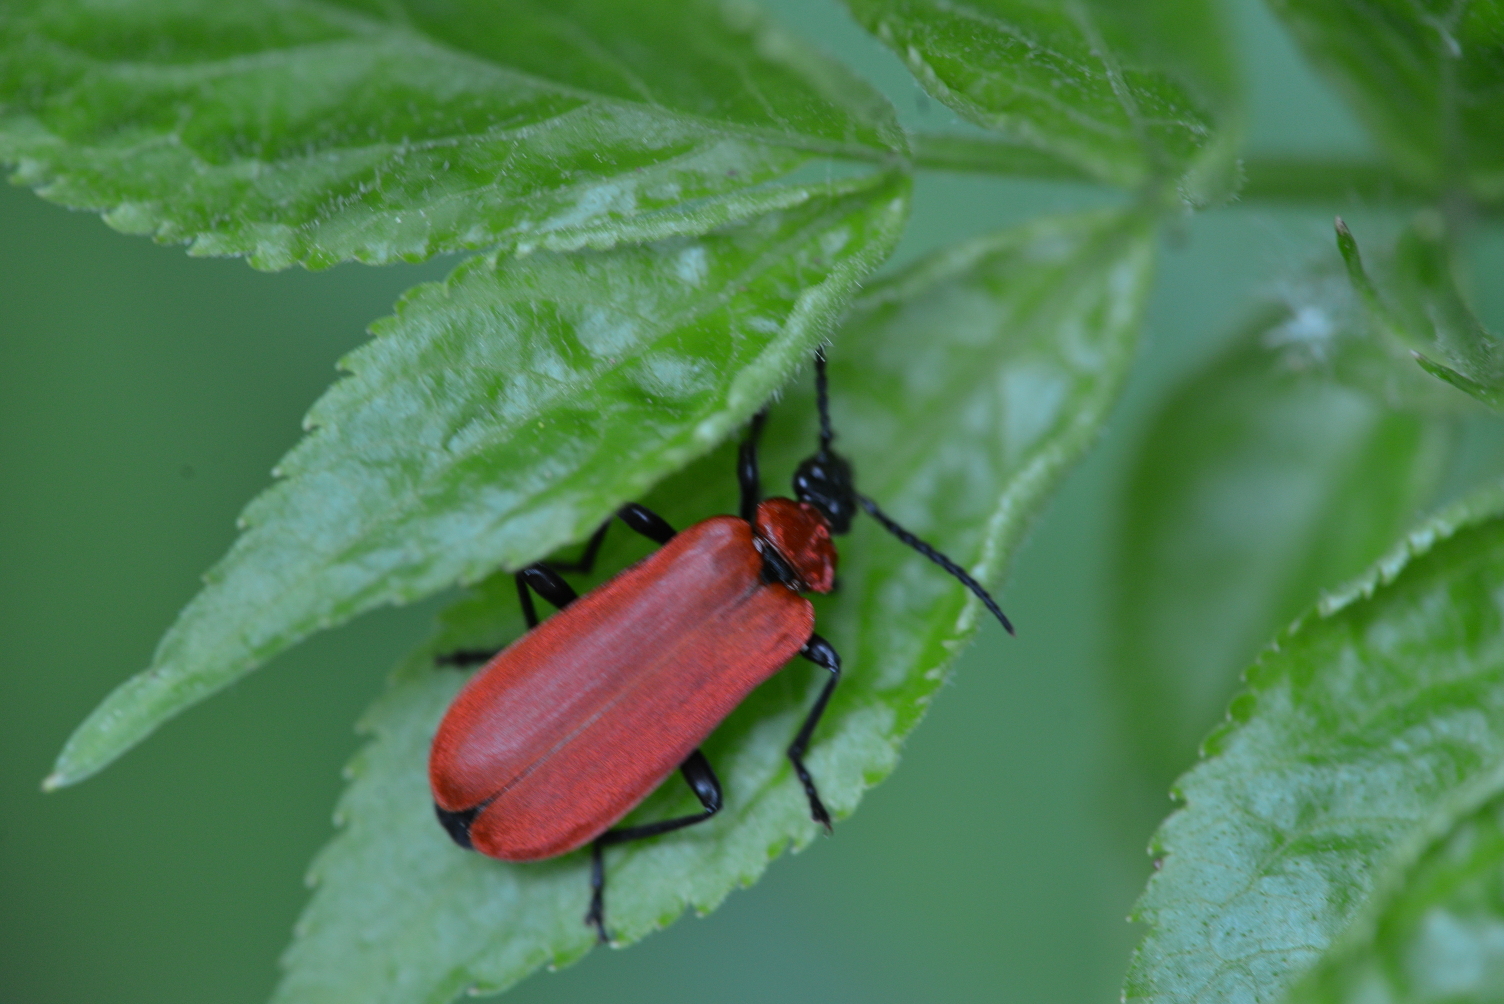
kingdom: Animalia
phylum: Arthropoda
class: Insecta
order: Coleoptera
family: Pyrochroidae
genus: Pyrochroa
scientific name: Pyrochroa coccinea
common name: Black-headed cardinal beetle
